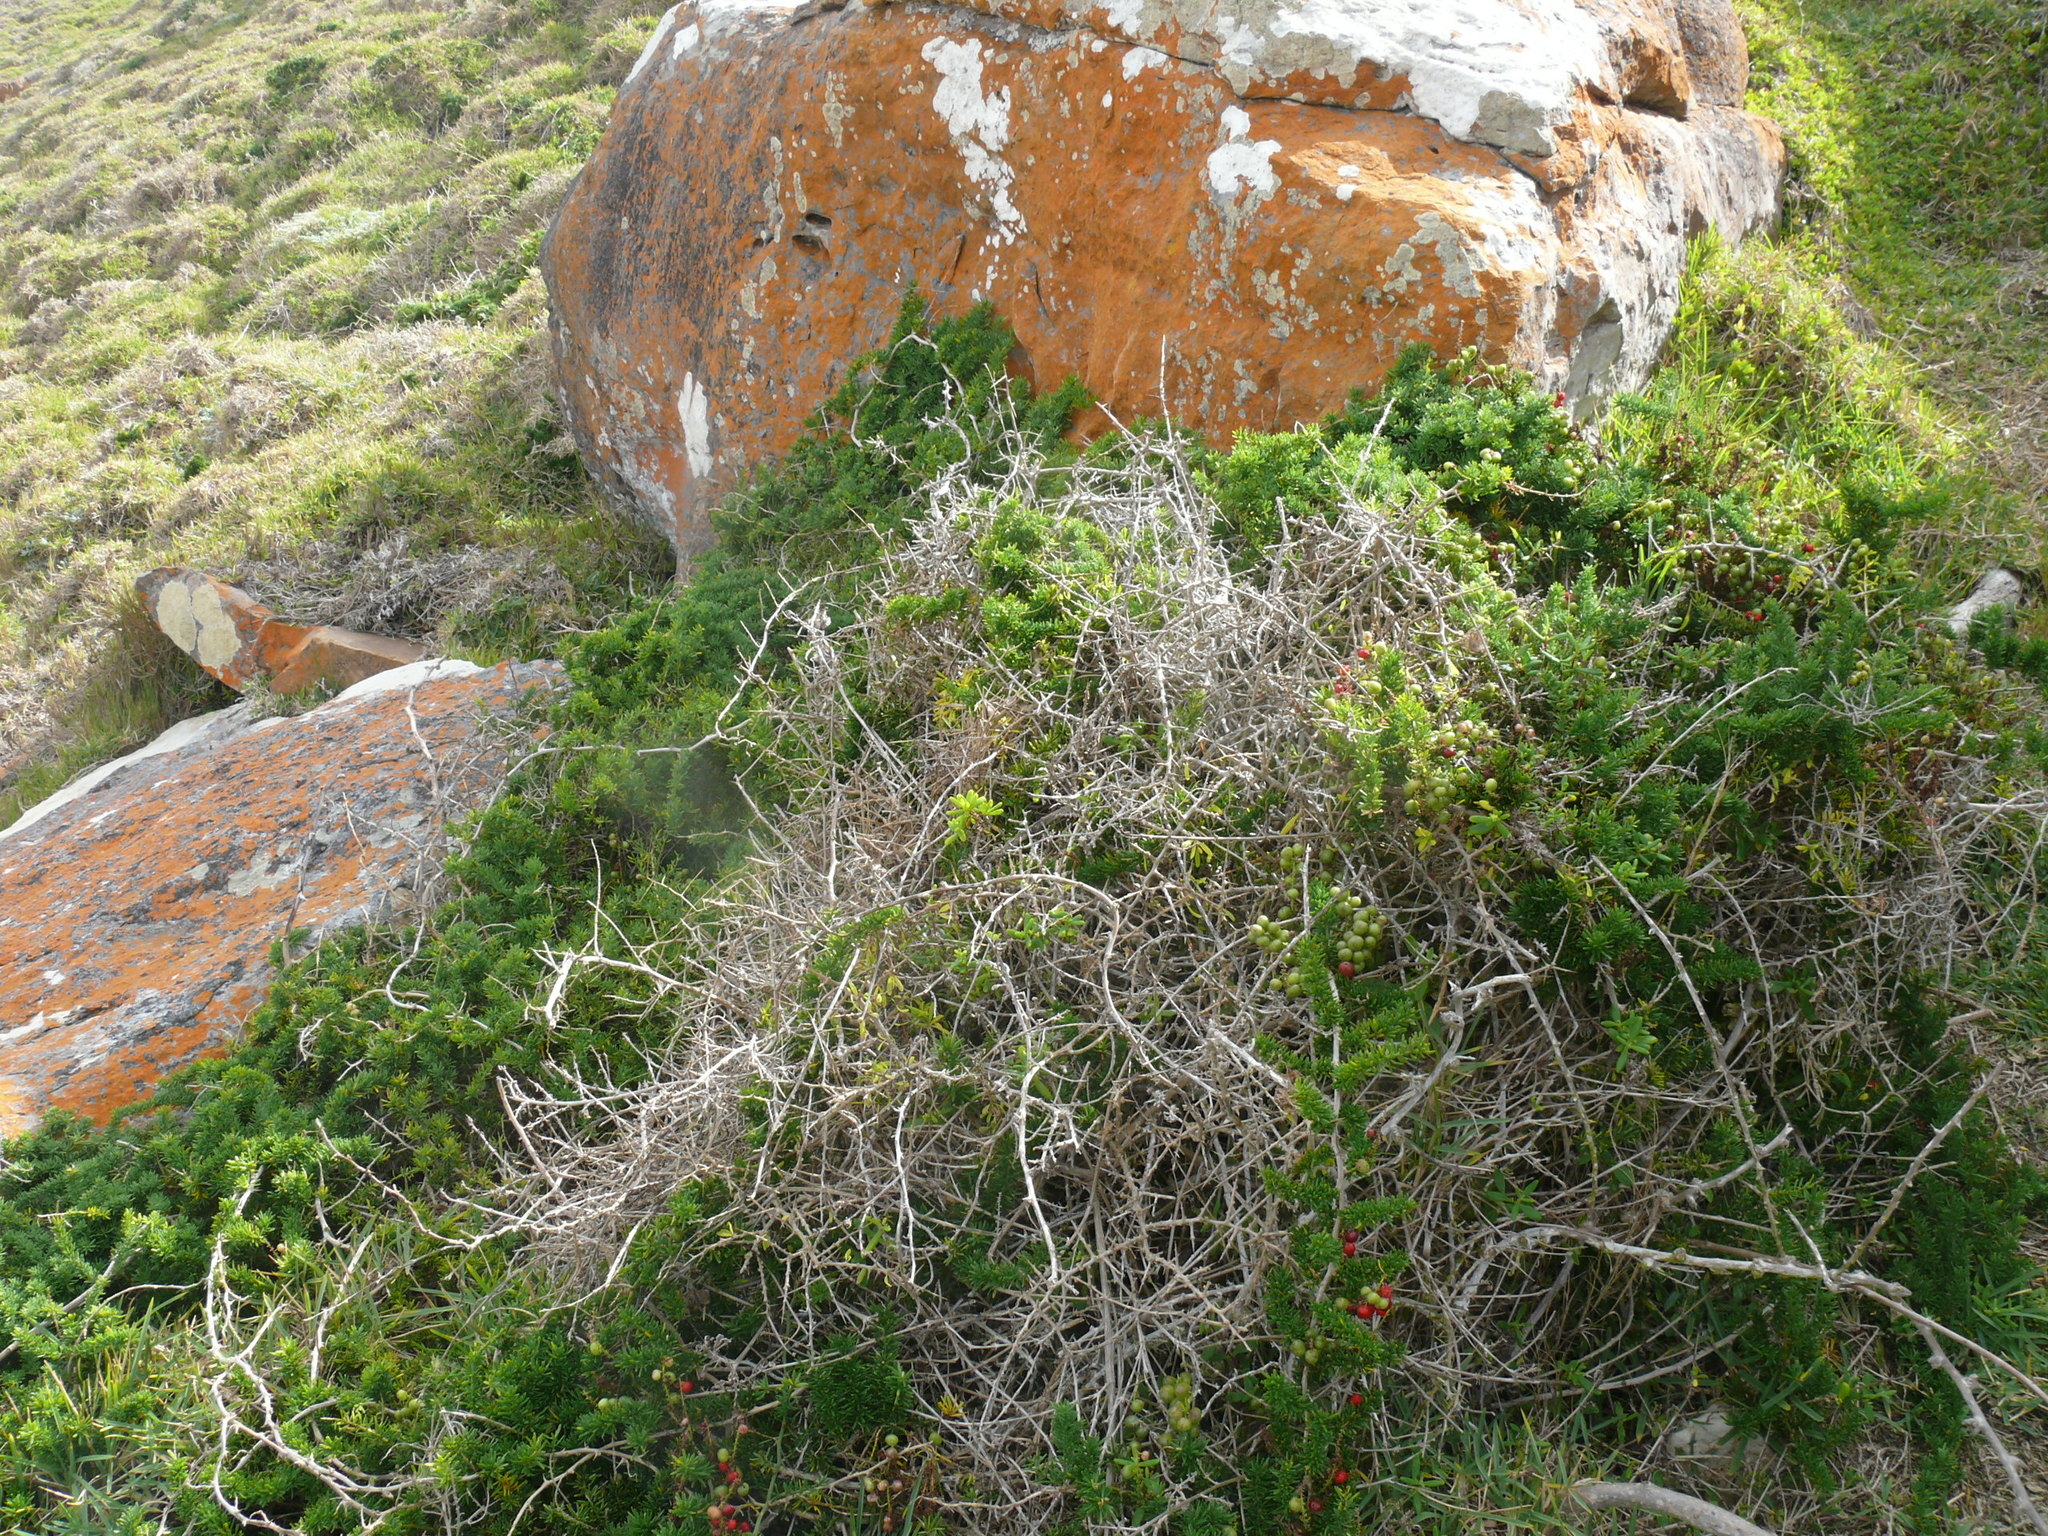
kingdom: Plantae
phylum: Tracheophyta
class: Liliopsida
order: Asparagales
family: Asparagaceae
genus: Asparagus
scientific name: Asparagus densiflorus
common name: Asparagus fern
